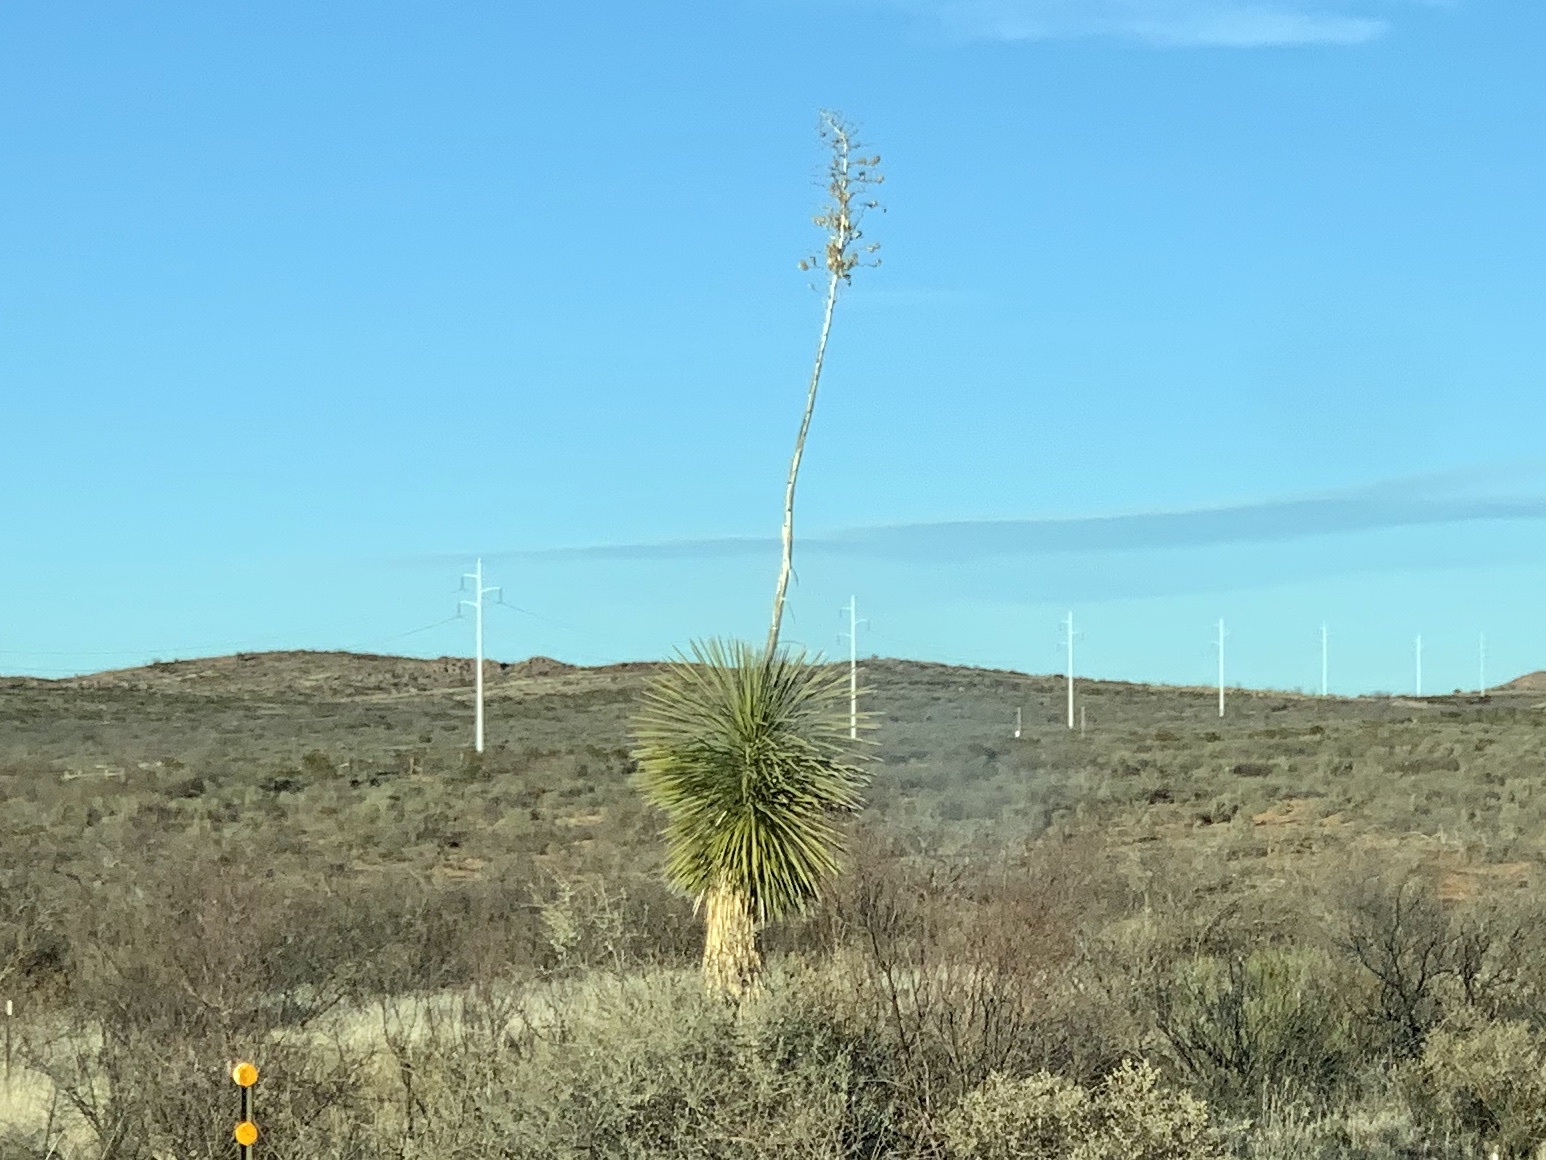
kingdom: Plantae
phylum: Tracheophyta
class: Liliopsida
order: Asparagales
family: Asparagaceae
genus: Yucca
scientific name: Yucca elata
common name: Palmella
